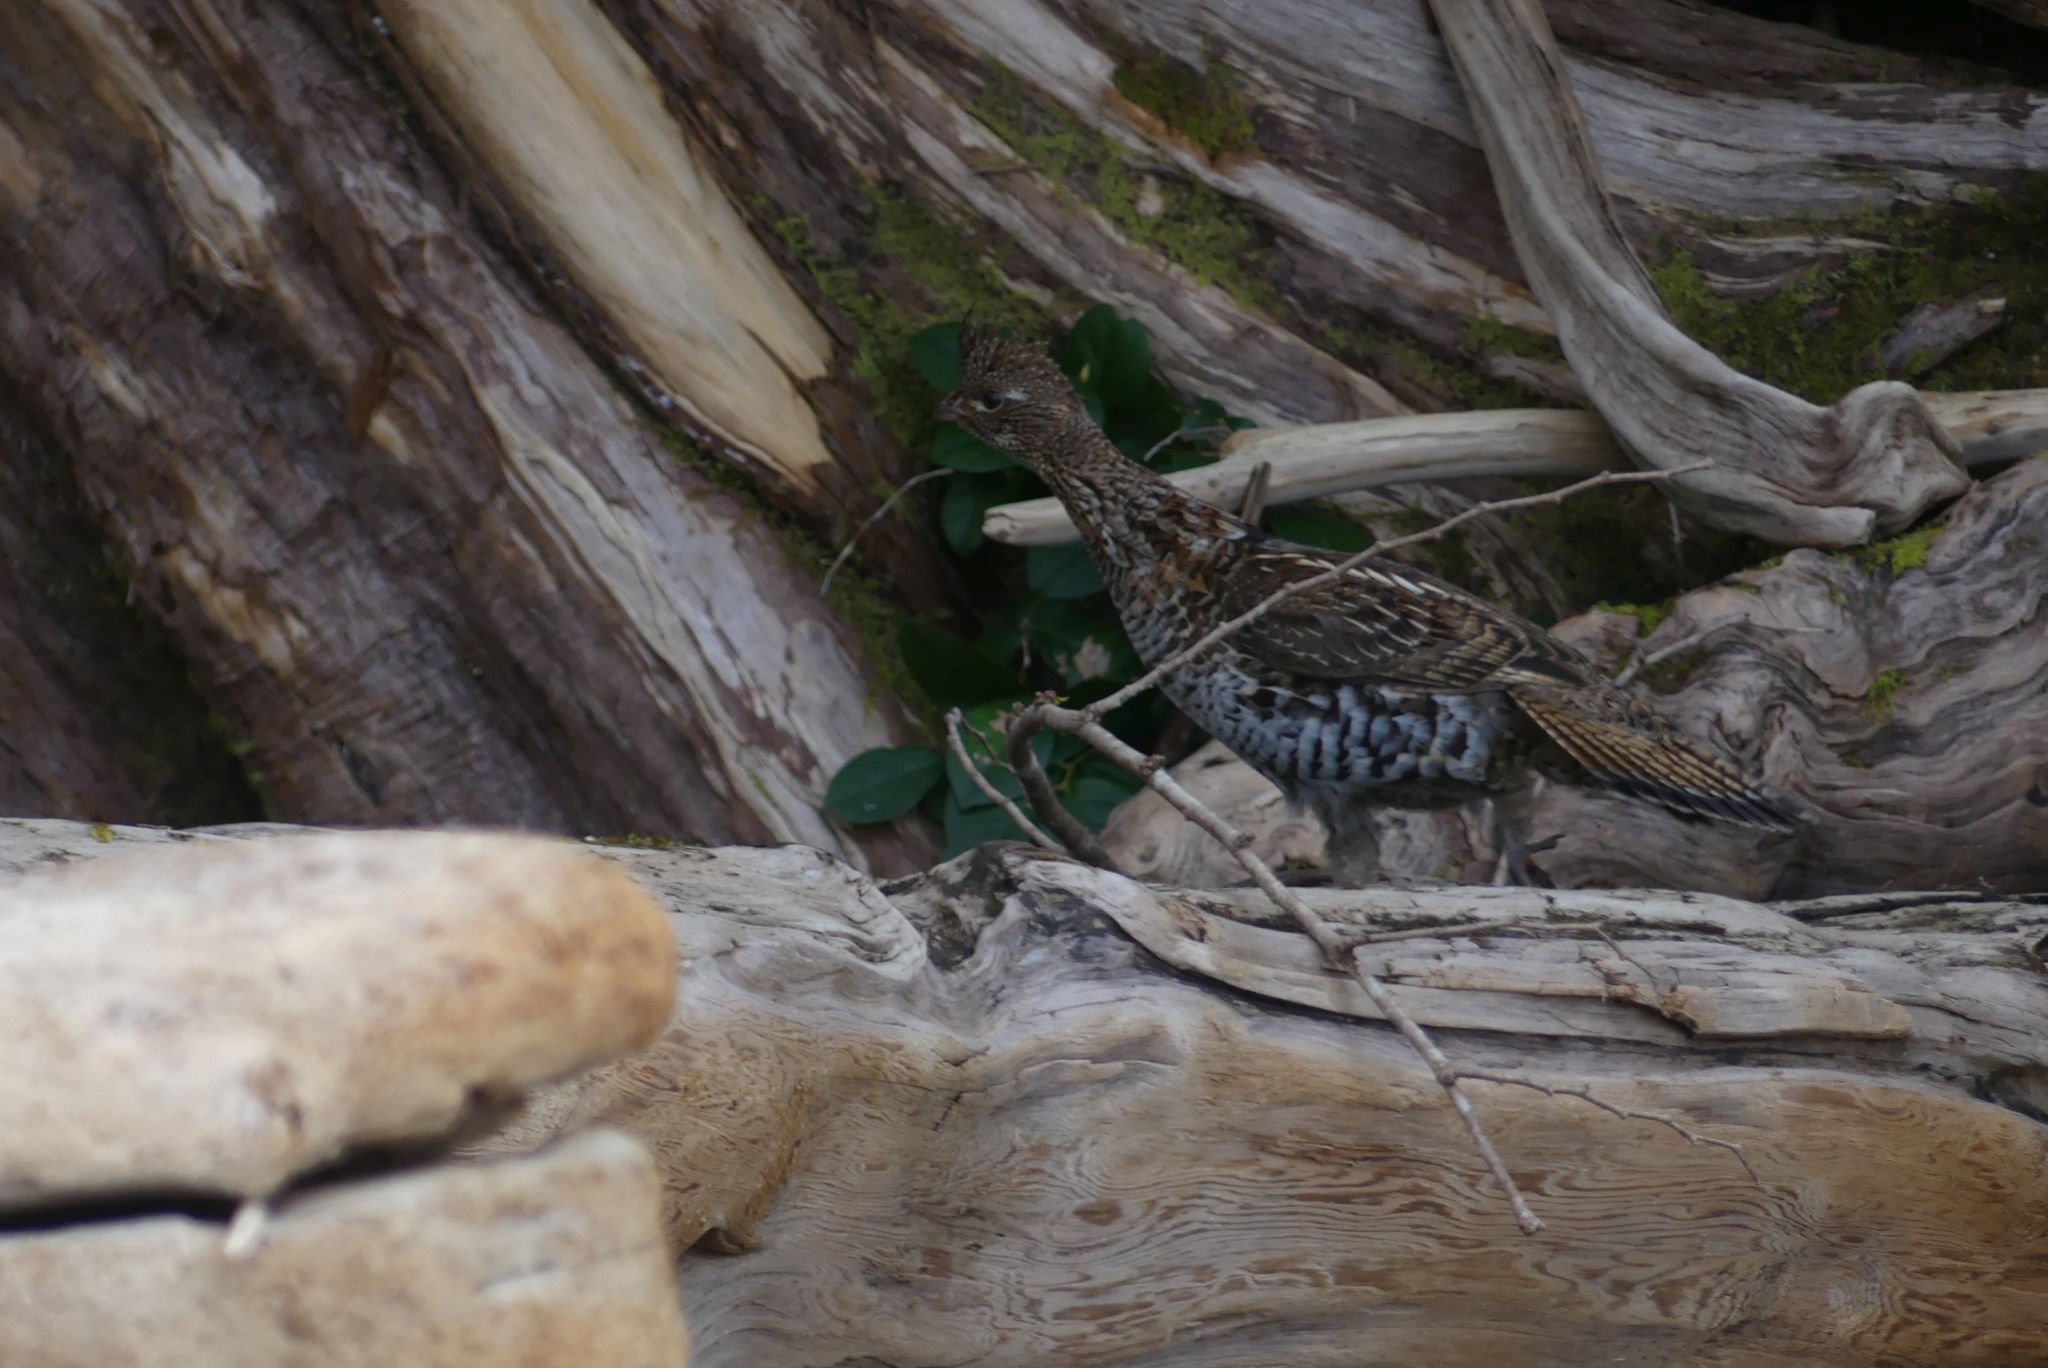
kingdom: Animalia
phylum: Chordata
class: Aves
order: Galliformes
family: Phasianidae
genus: Bonasa
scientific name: Bonasa umbellus
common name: Ruffed grouse
